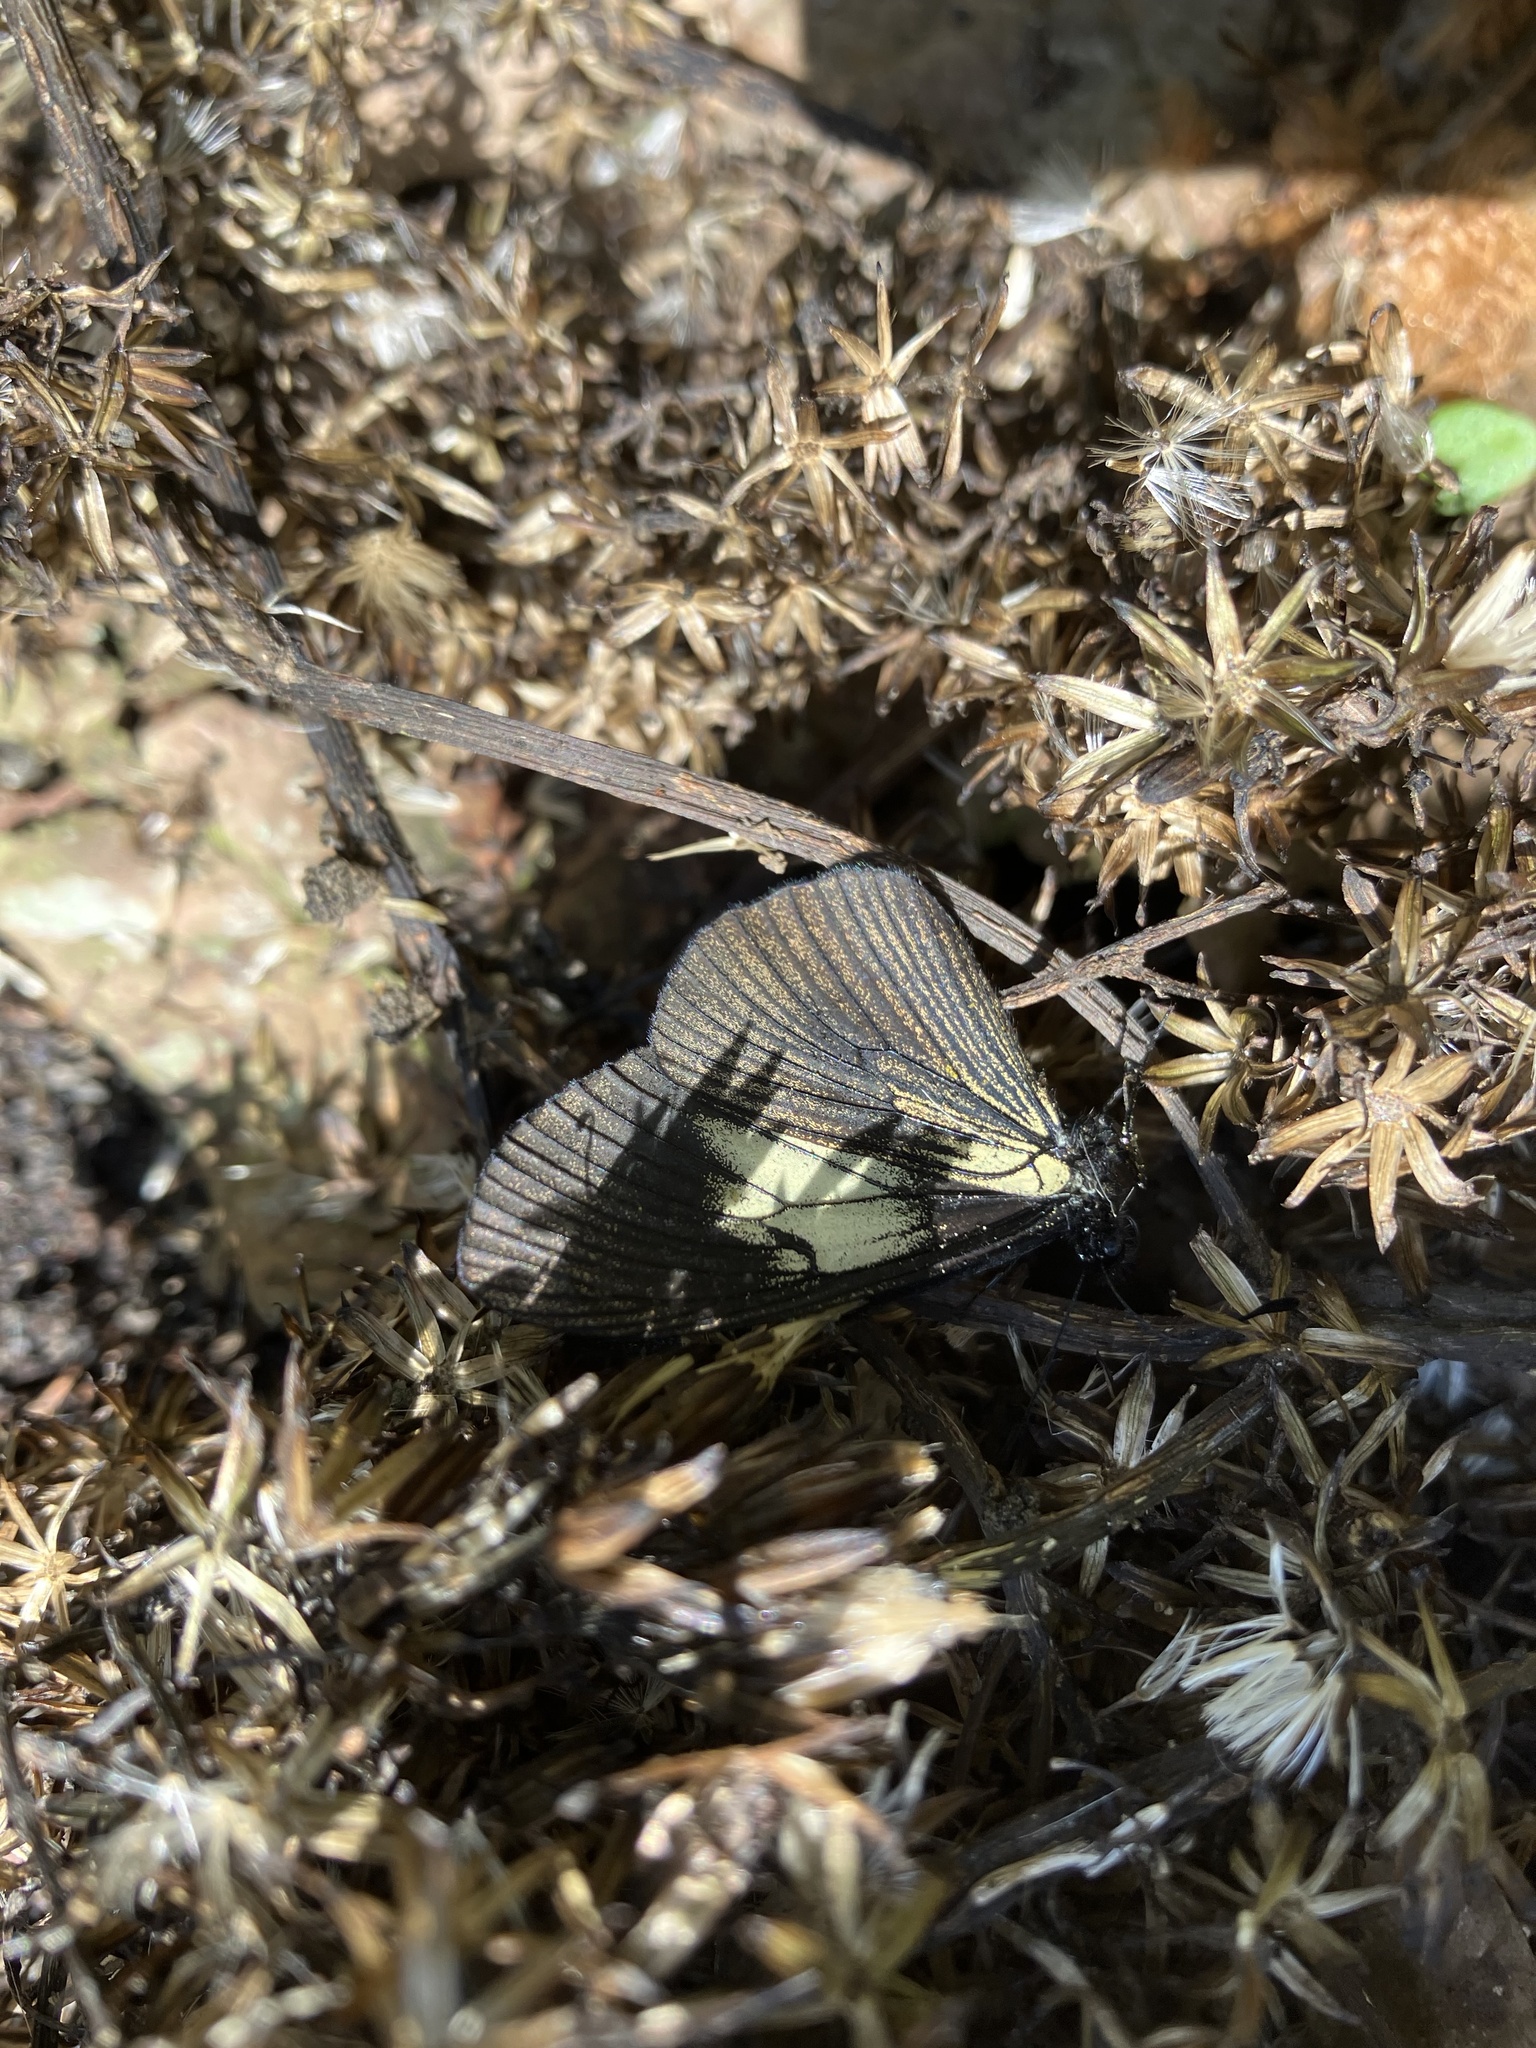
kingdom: Animalia
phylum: Arthropoda
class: Insecta
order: Lepidoptera
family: Nymphalidae
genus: Acraea
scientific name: Acraea Altinote ozomene
